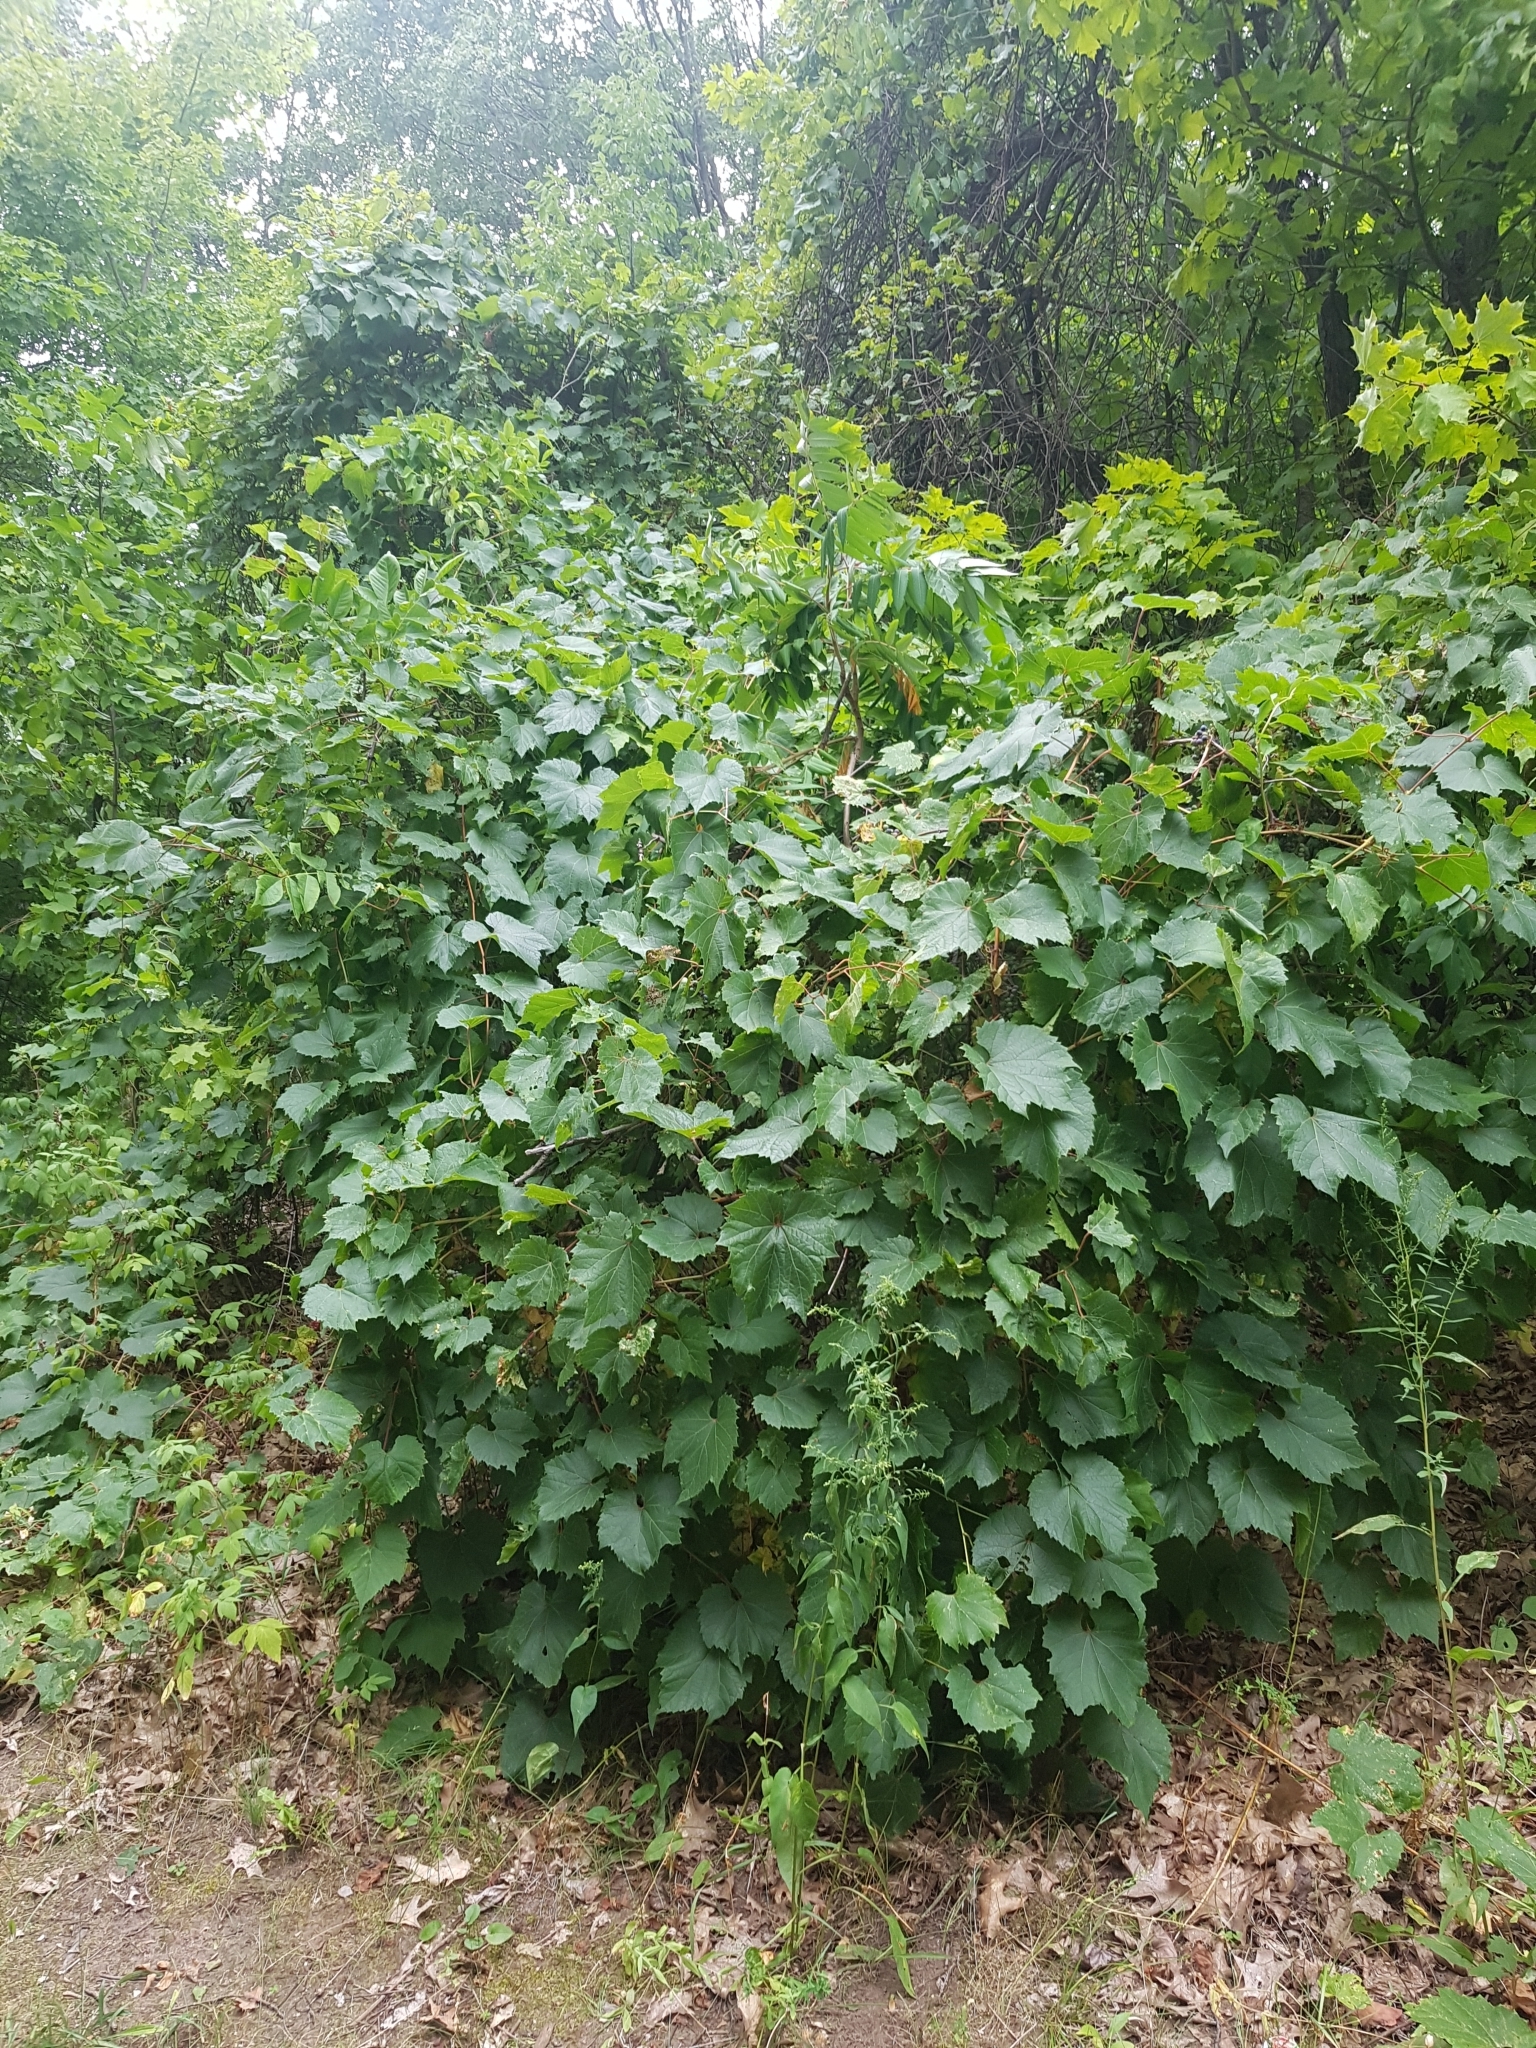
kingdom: Plantae
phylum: Tracheophyta
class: Magnoliopsida
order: Vitales
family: Vitaceae
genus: Vitis
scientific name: Vitis riparia
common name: Frost grape
